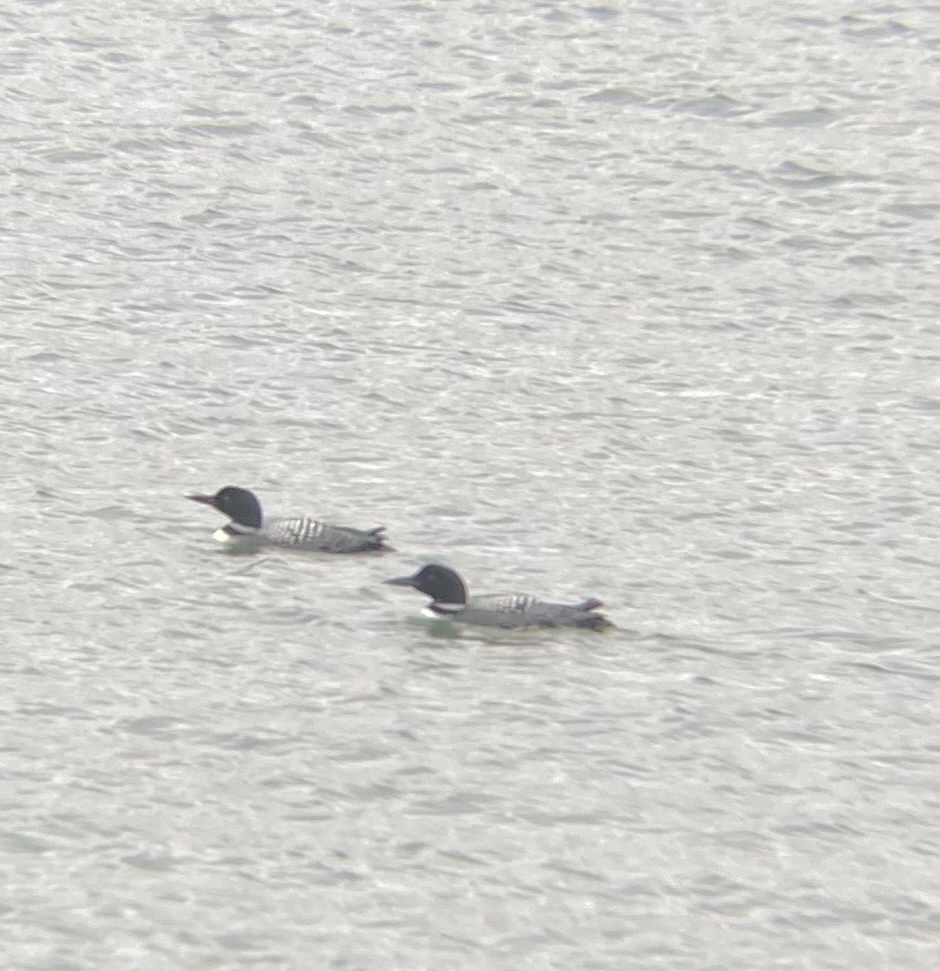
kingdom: Animalia
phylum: Chordata
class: Aves
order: Gaviiformes
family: Gaviidae
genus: Gavia
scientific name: Gavia immer
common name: Common loon
